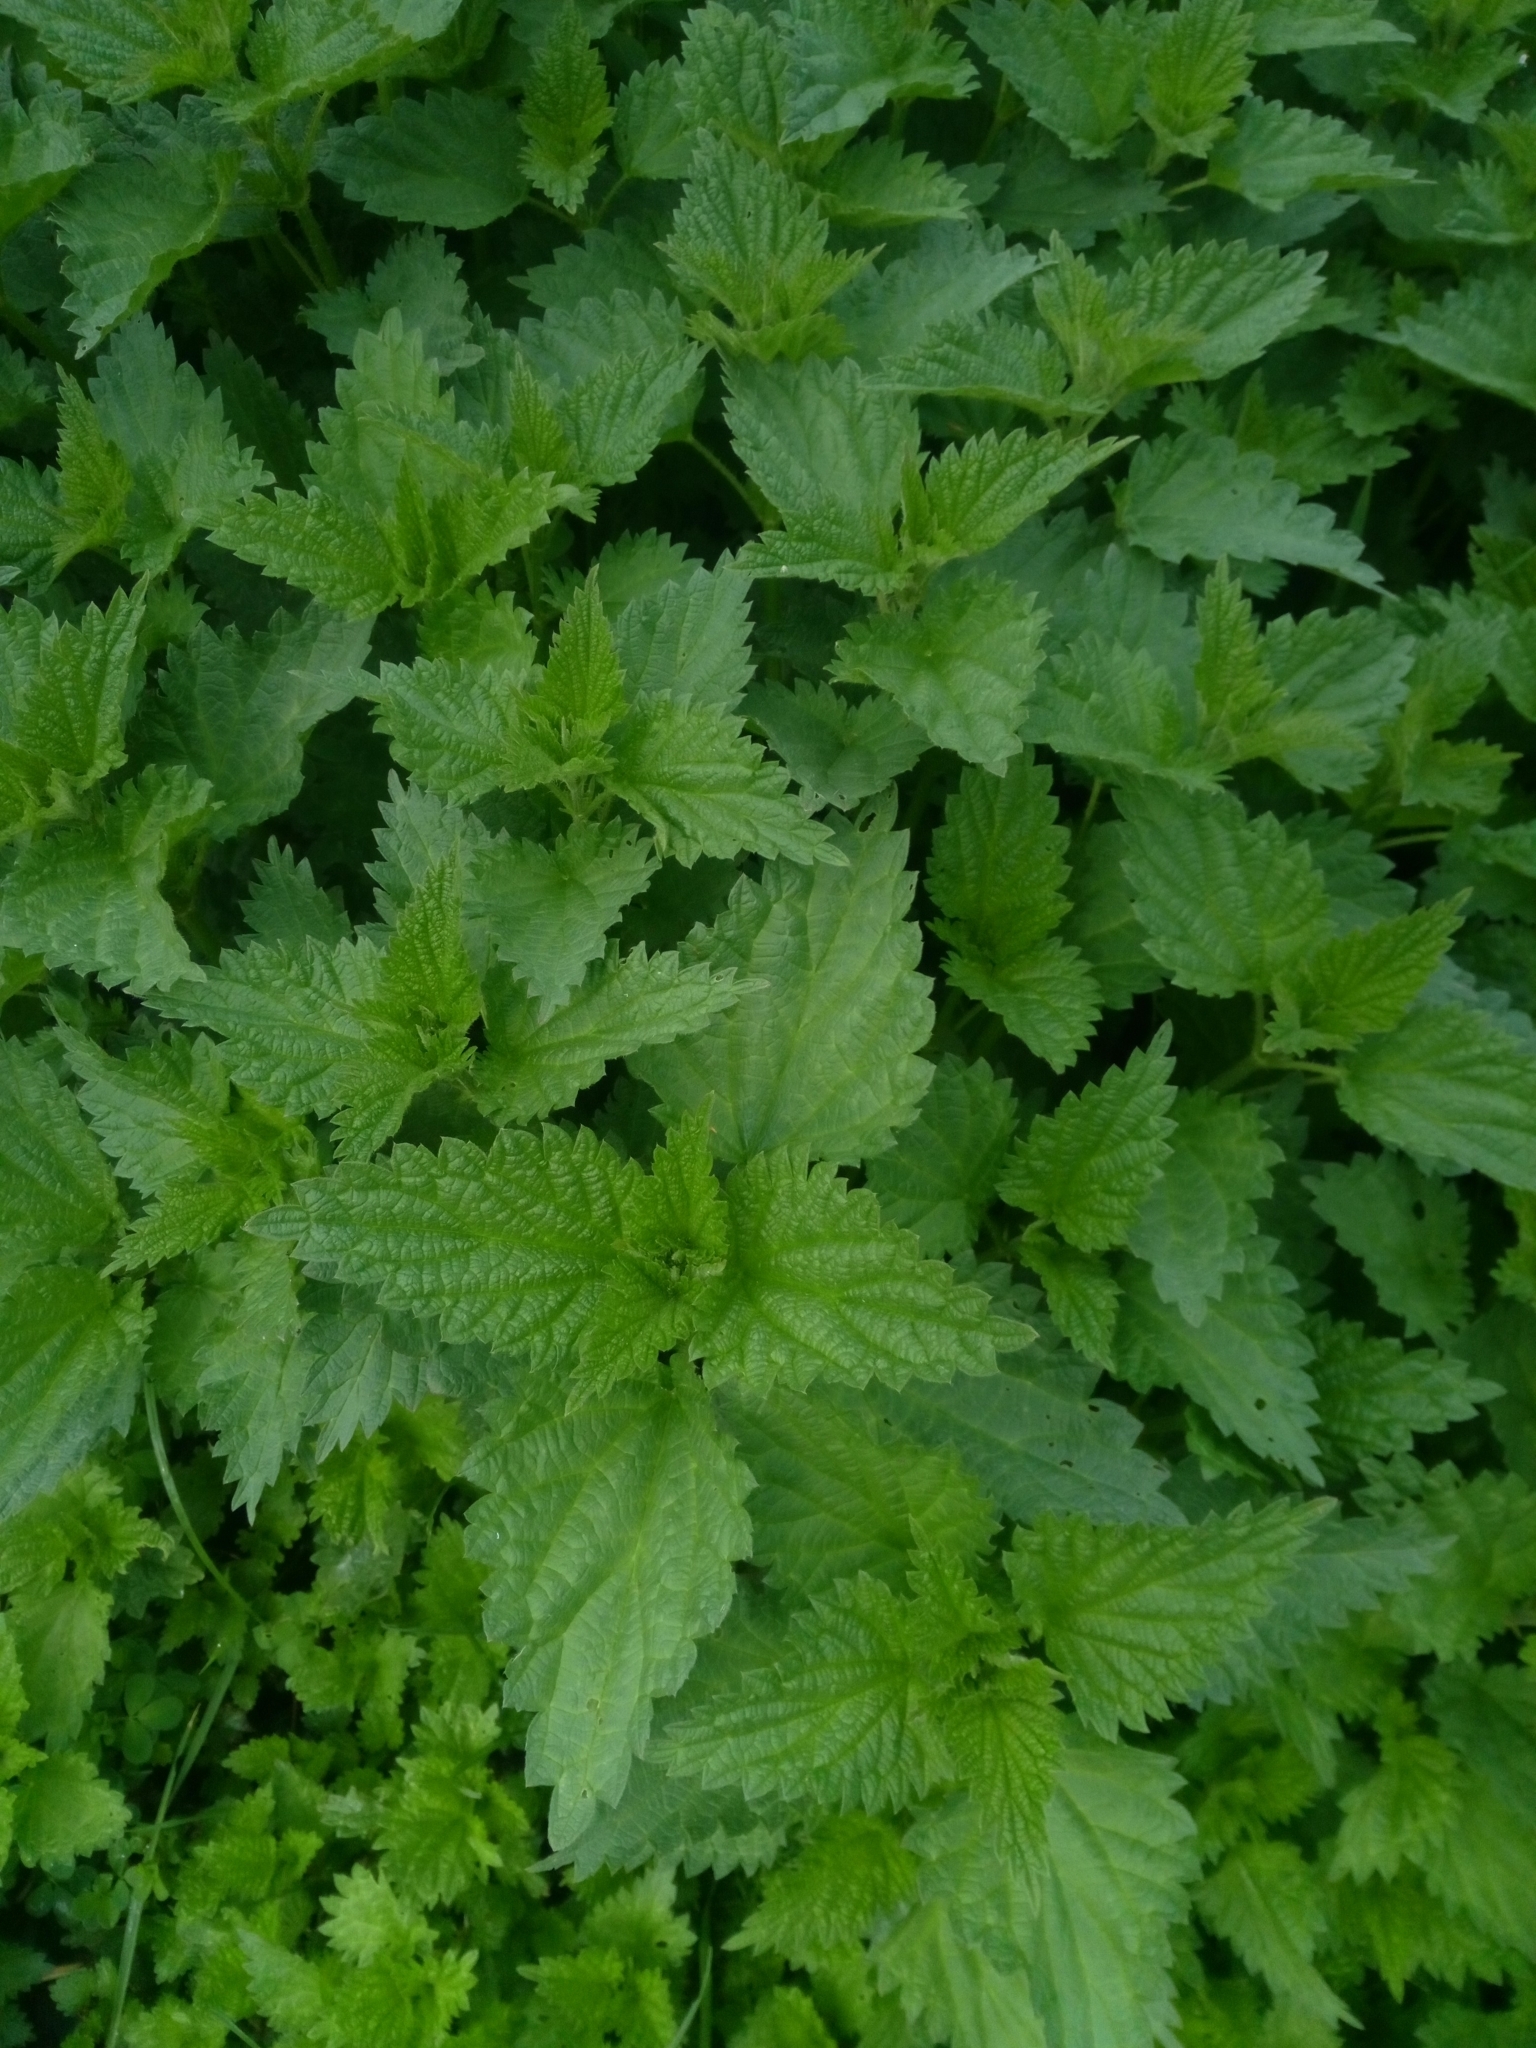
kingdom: Plantae
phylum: Tracheophyta
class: Magnoliopsida
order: Rosales
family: Urticaceae
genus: Urtica
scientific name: Urtica dioica
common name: Common nettle
